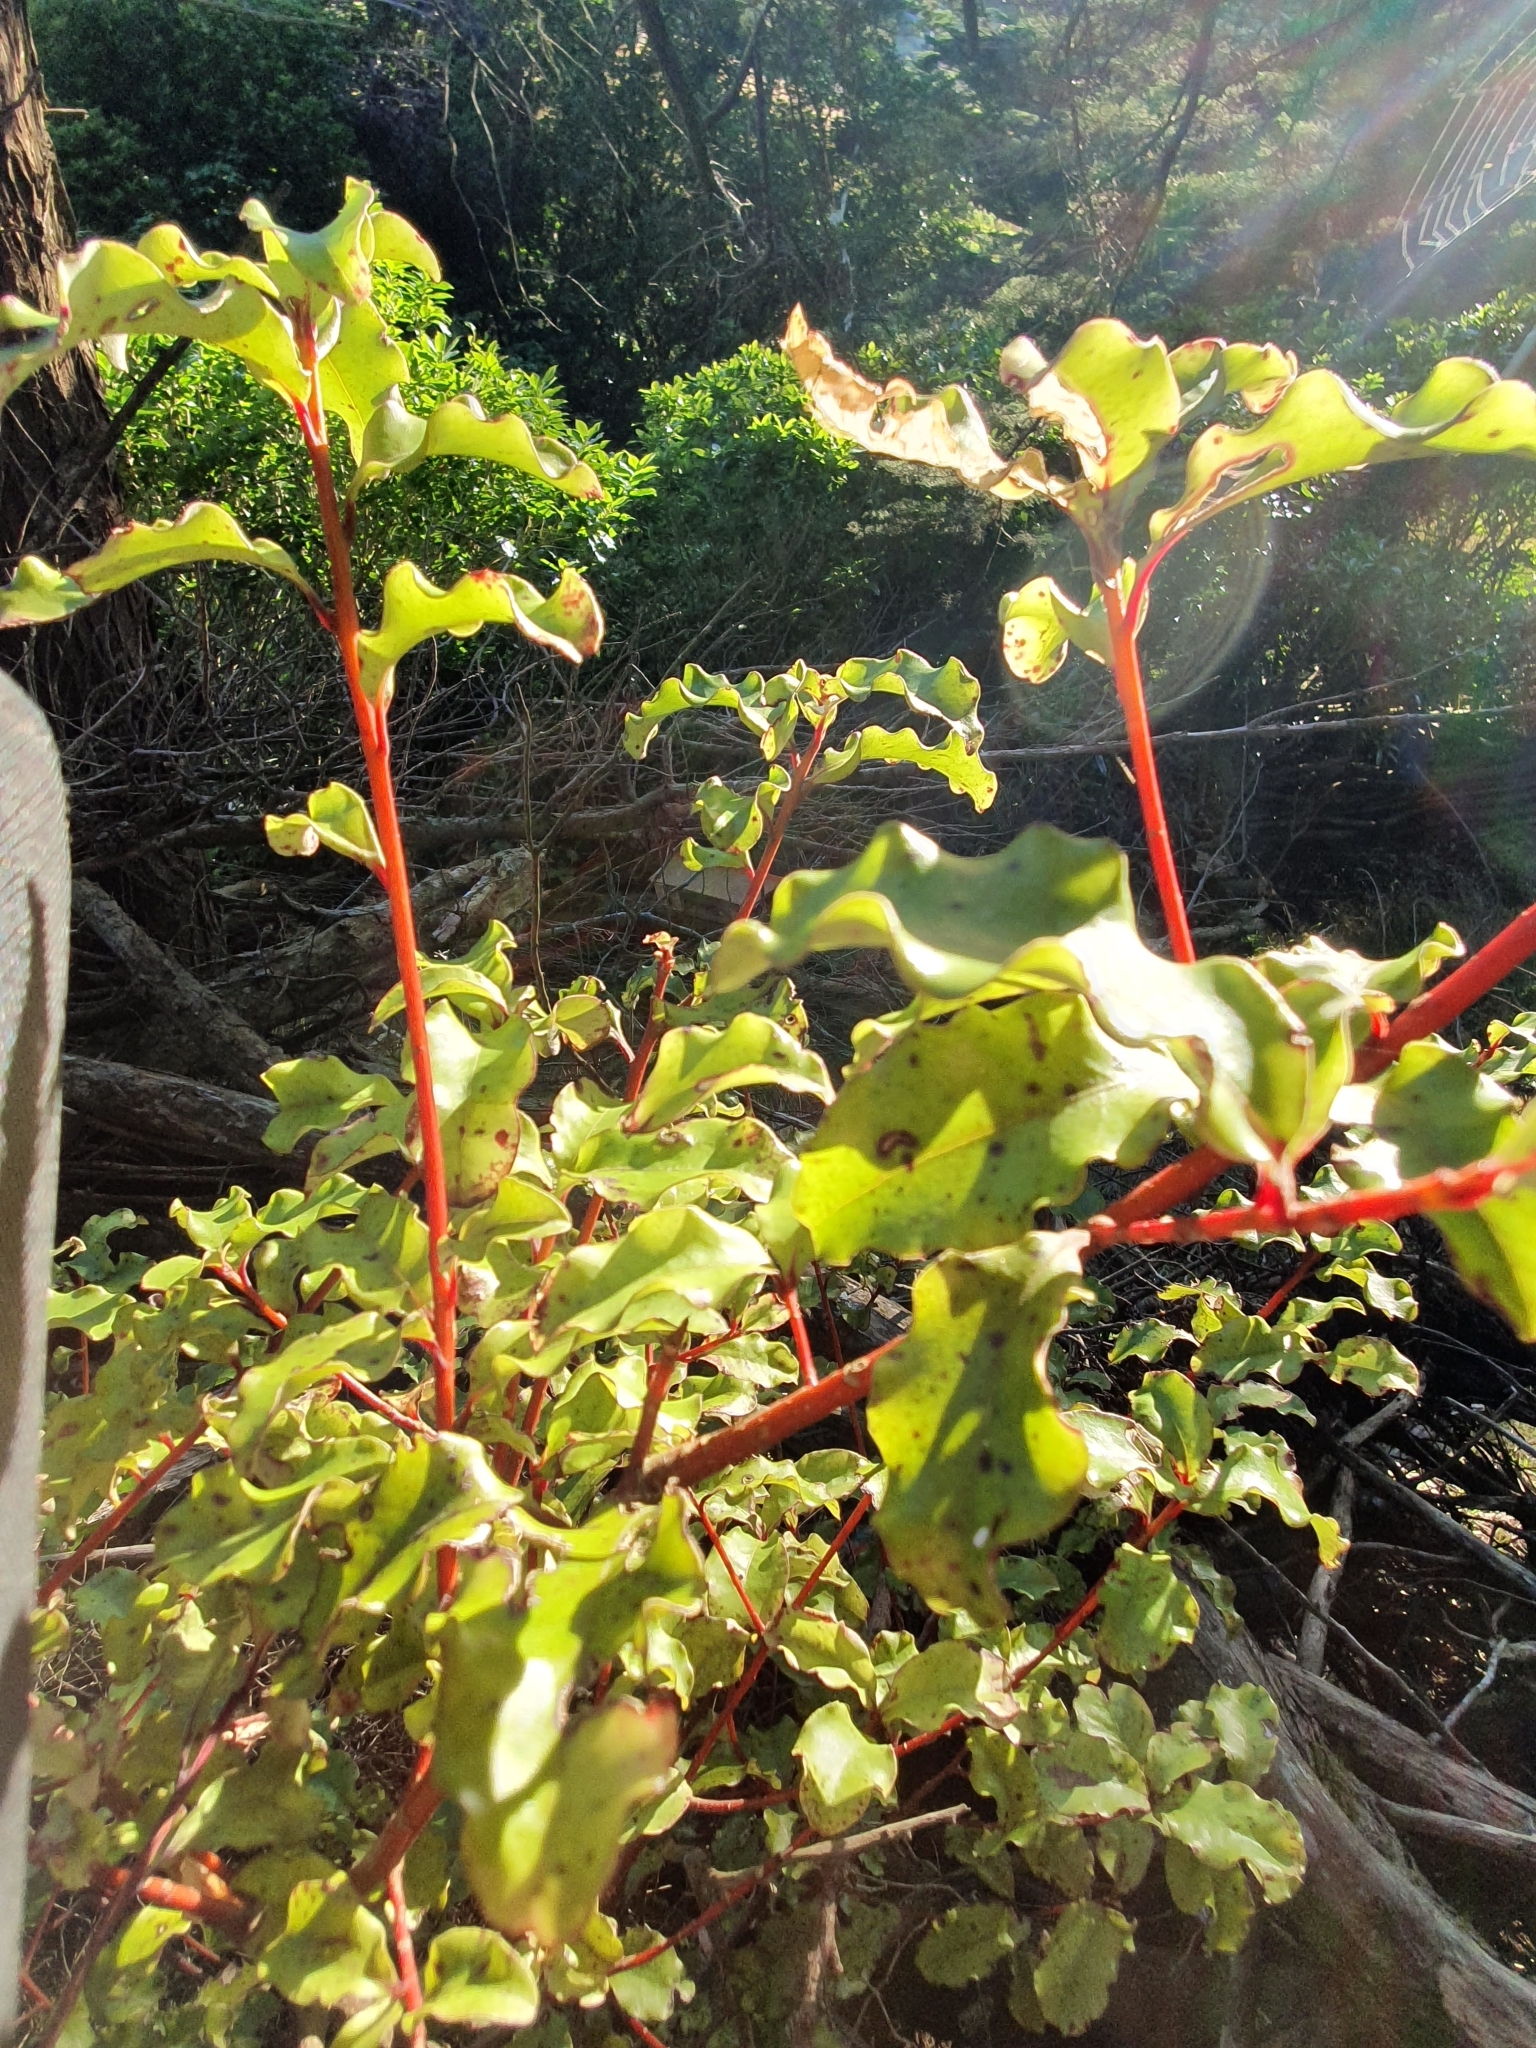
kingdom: Plantae
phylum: Tracheophyta
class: Magnoliopsida
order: Ericales
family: Primulaceae
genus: Myrsine
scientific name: Myrsine australis
